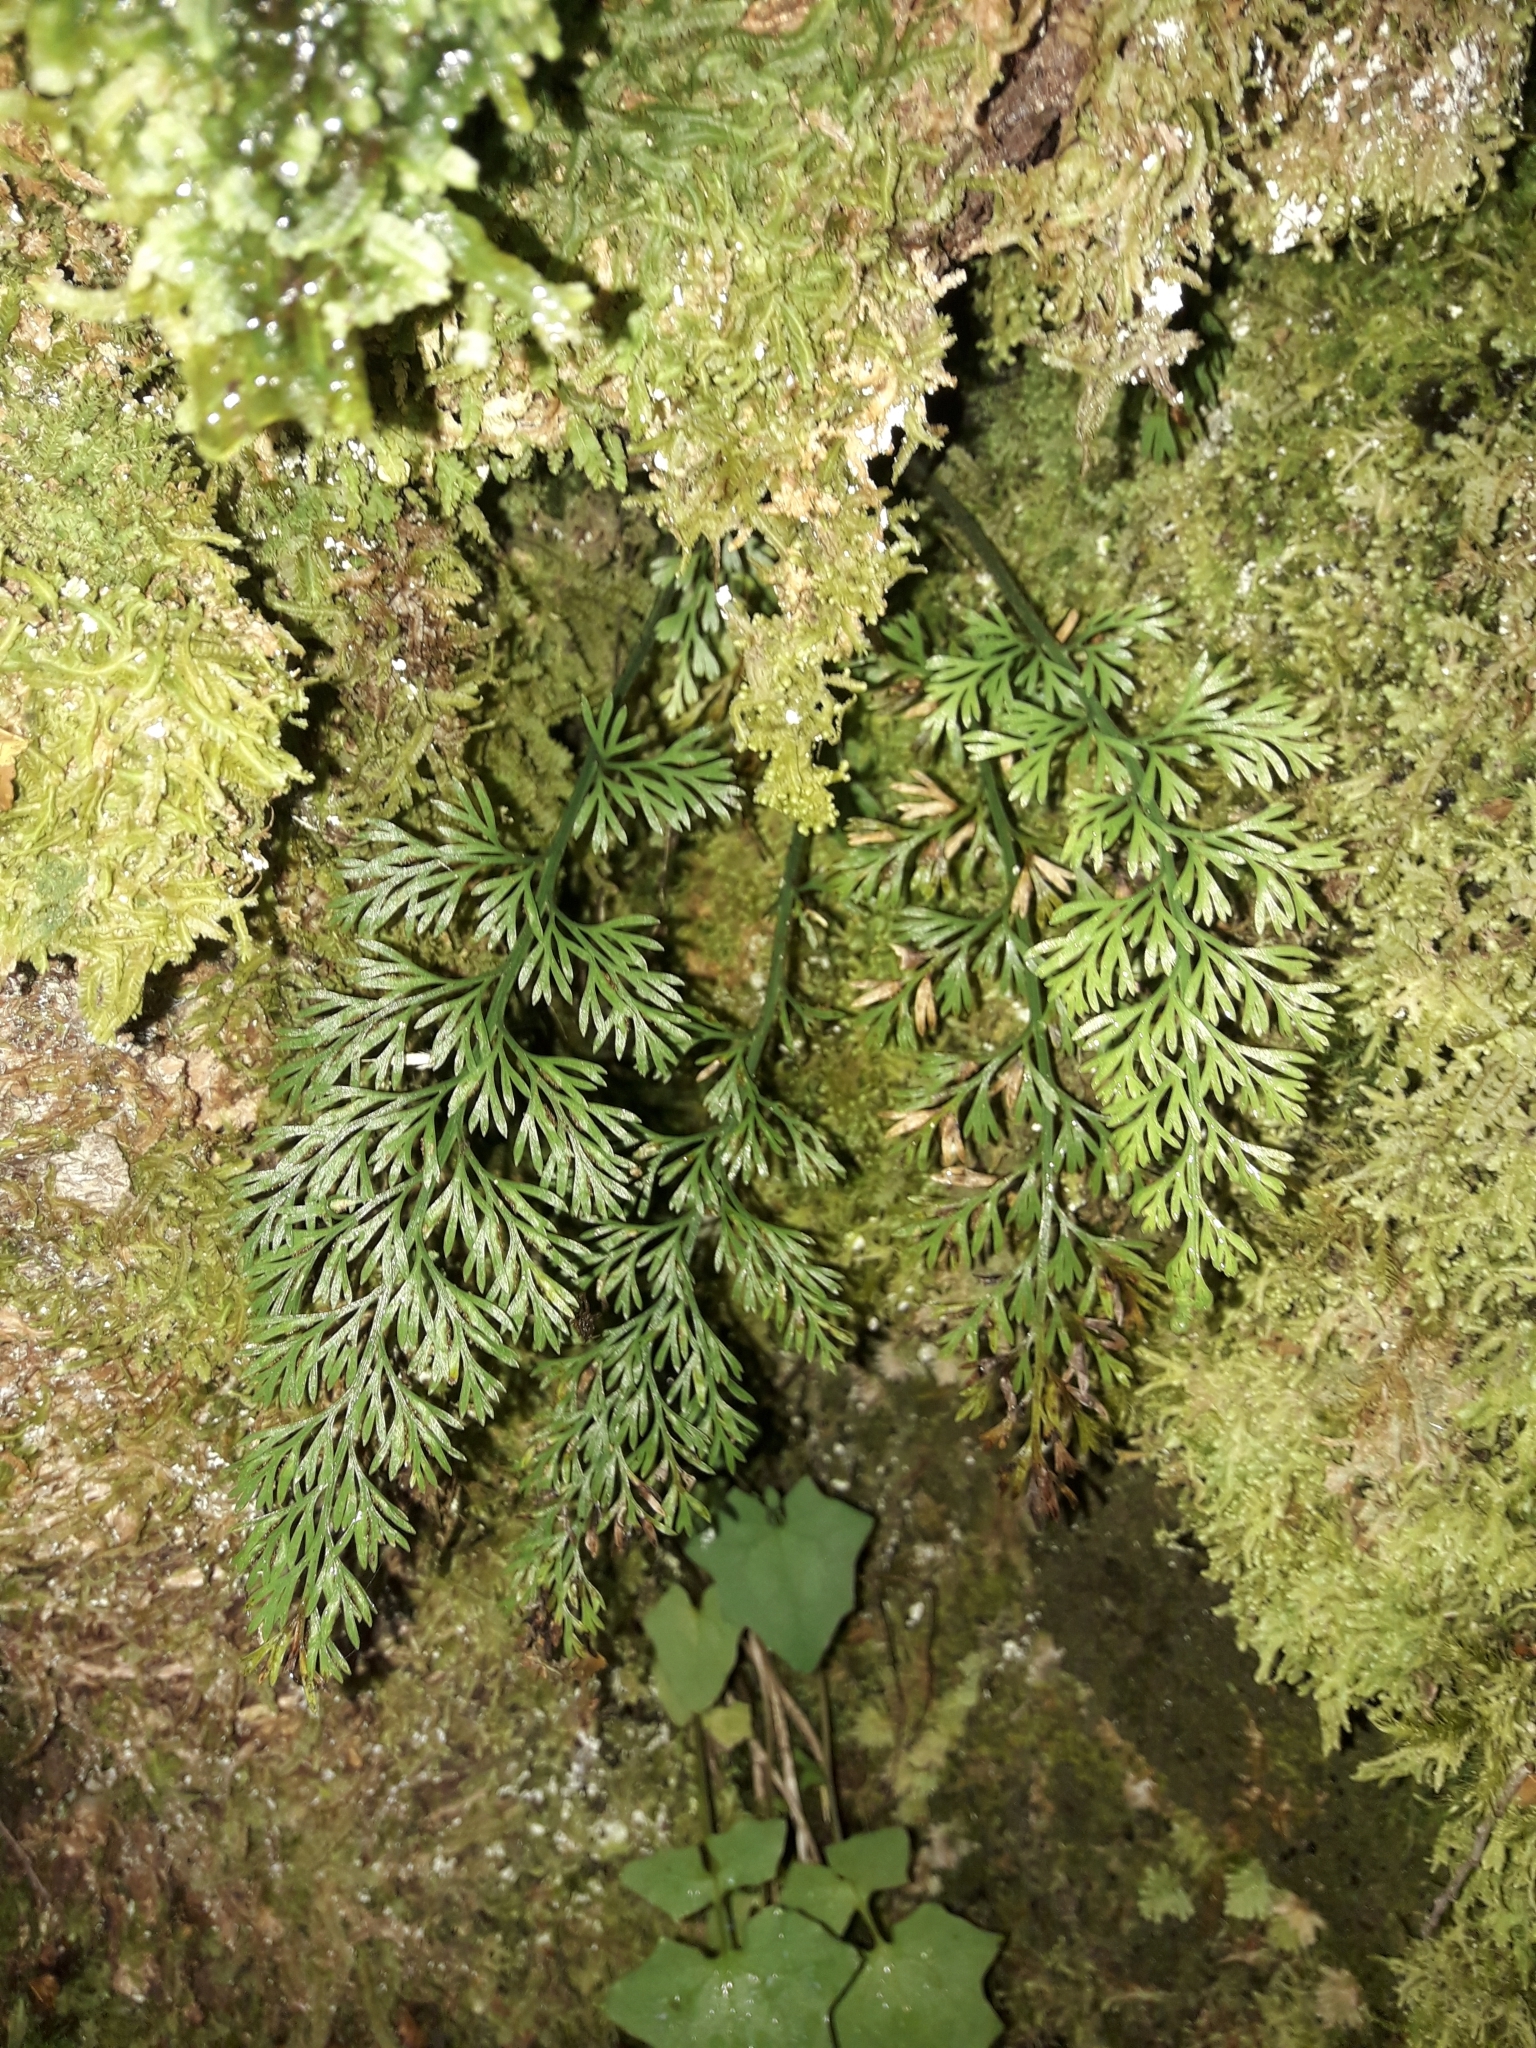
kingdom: Plantae
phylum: Tracheophyta
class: Polypodiopsida
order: Polypodiales
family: Aspleniaceae
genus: Asplenium
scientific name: Asplenium richardii
